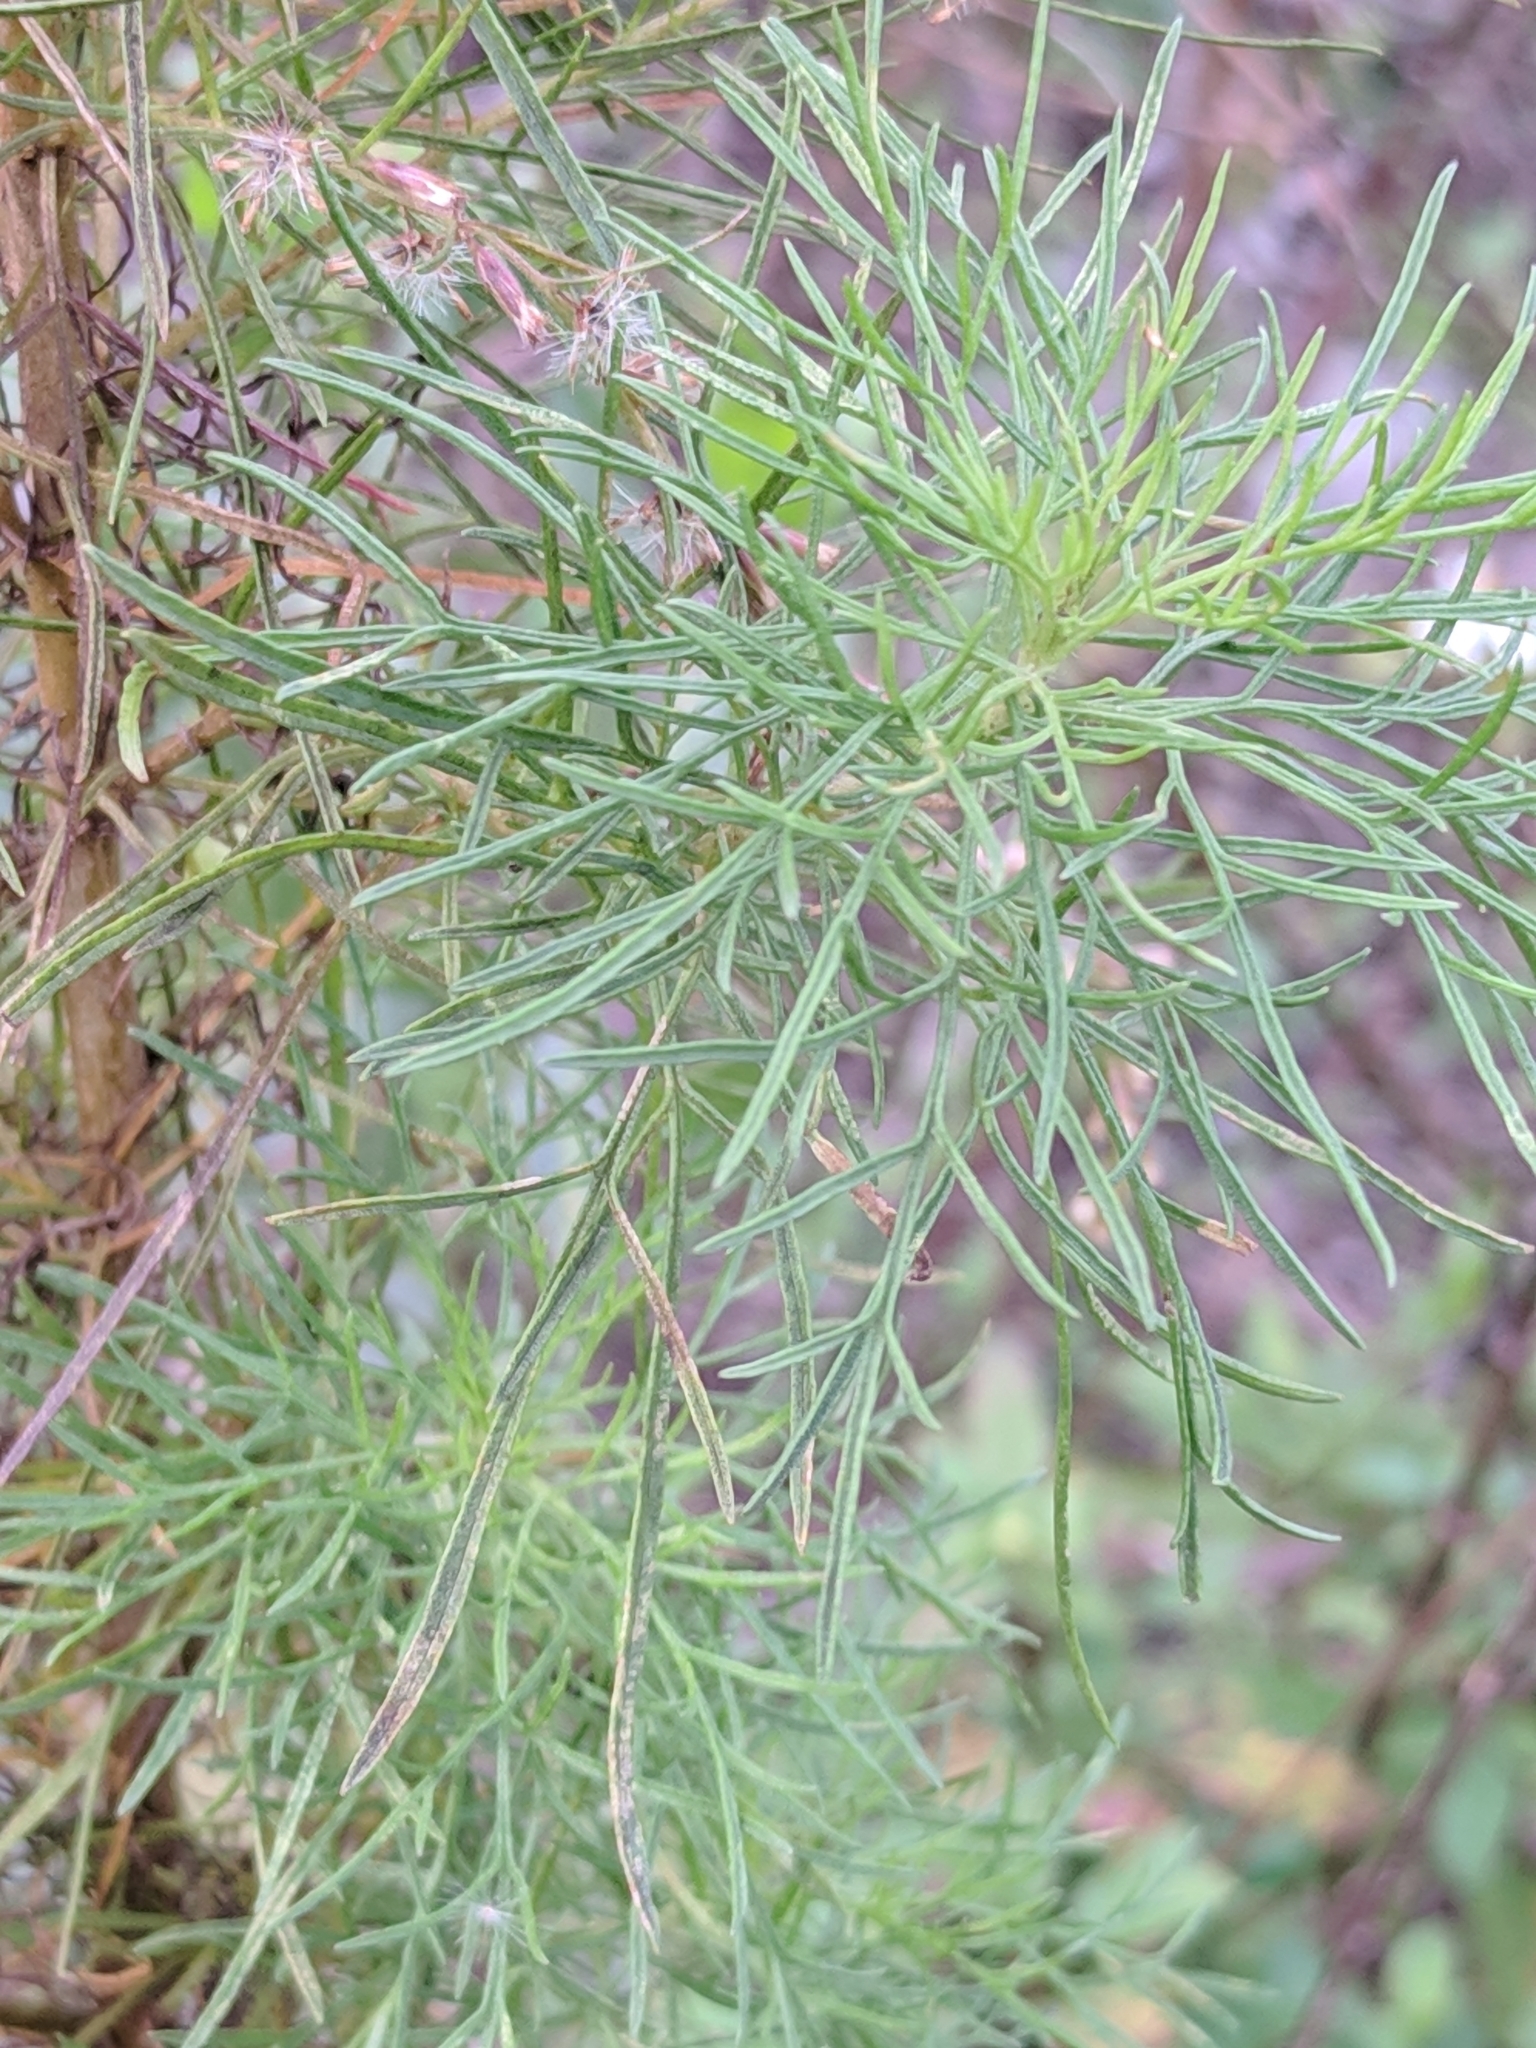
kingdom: Plantae
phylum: Tracheophyta
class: Magnoliopsida
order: Asterales
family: Asteraceae
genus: Eupatorium
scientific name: Eupatorium capillifolium
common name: Dog-fennel
